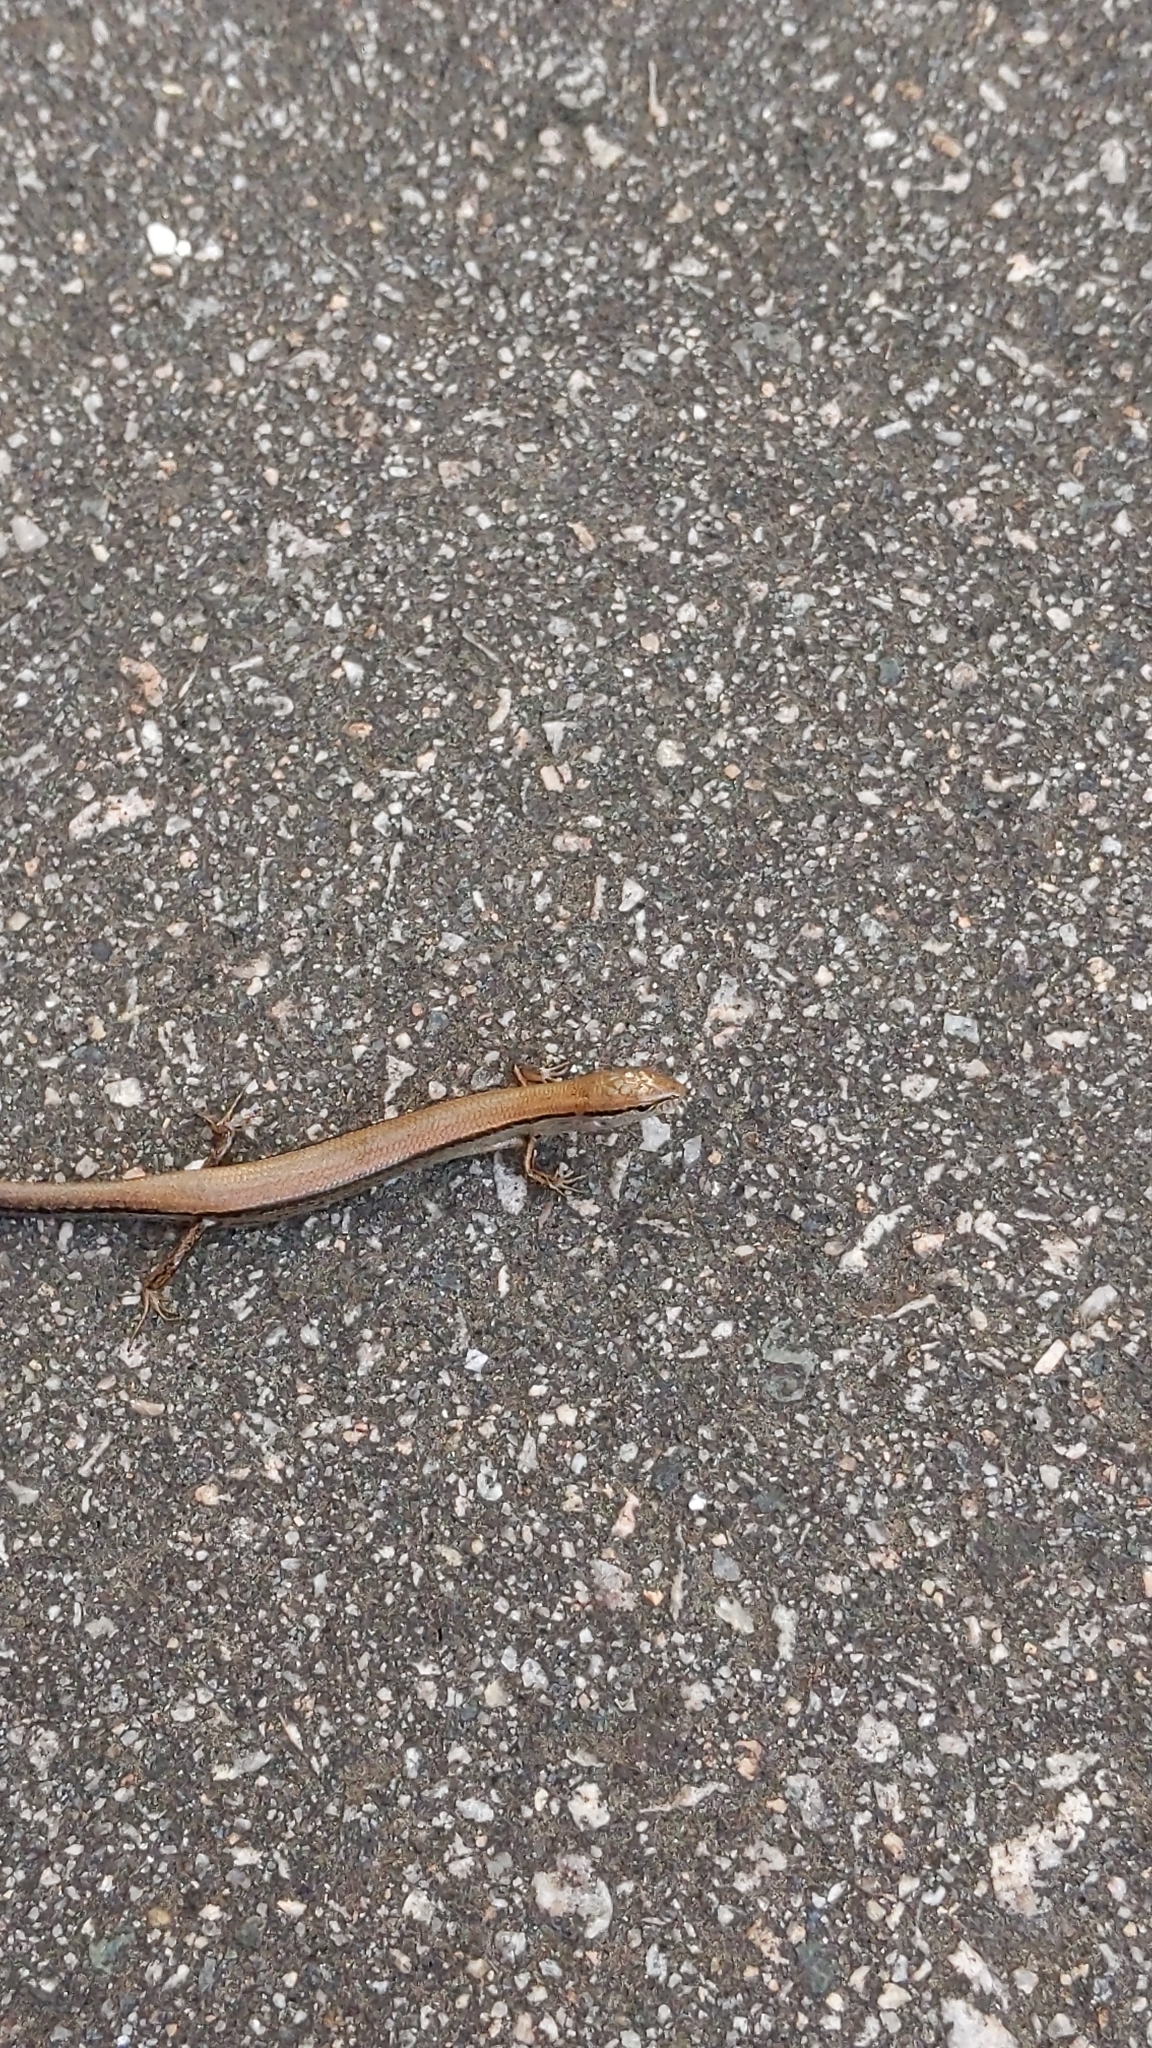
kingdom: Animalia
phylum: Chordata
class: Squamata
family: Scincidae
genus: Scincella
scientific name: Scincella lateralis
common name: Ground skink
